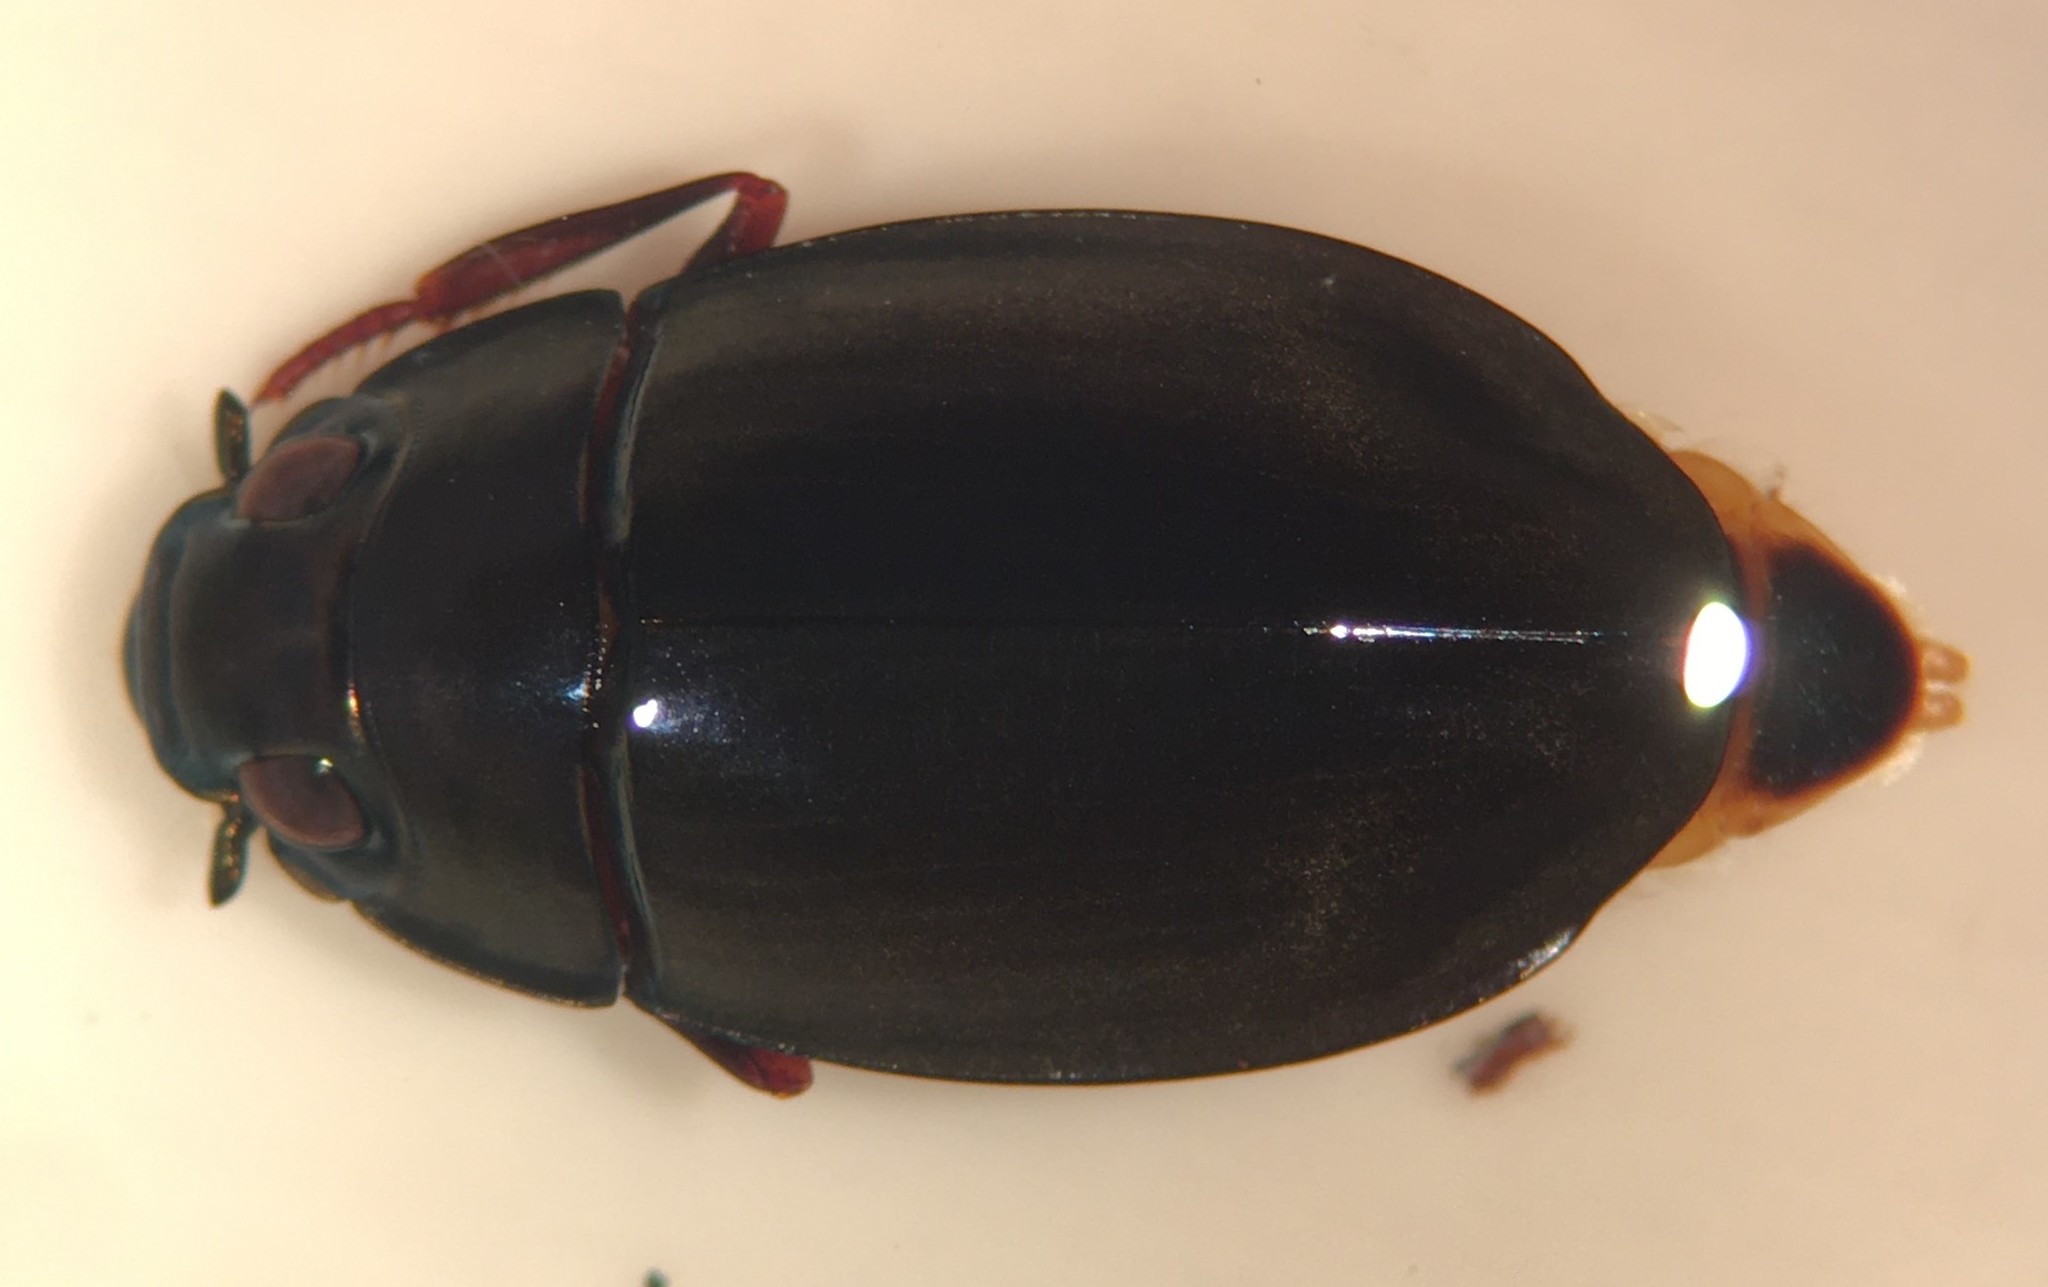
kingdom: Animalia
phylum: Arthropoda
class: Insecta
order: Coleoptera
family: Gyrinidae
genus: Dineutus
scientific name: Dineutus serrulatus
